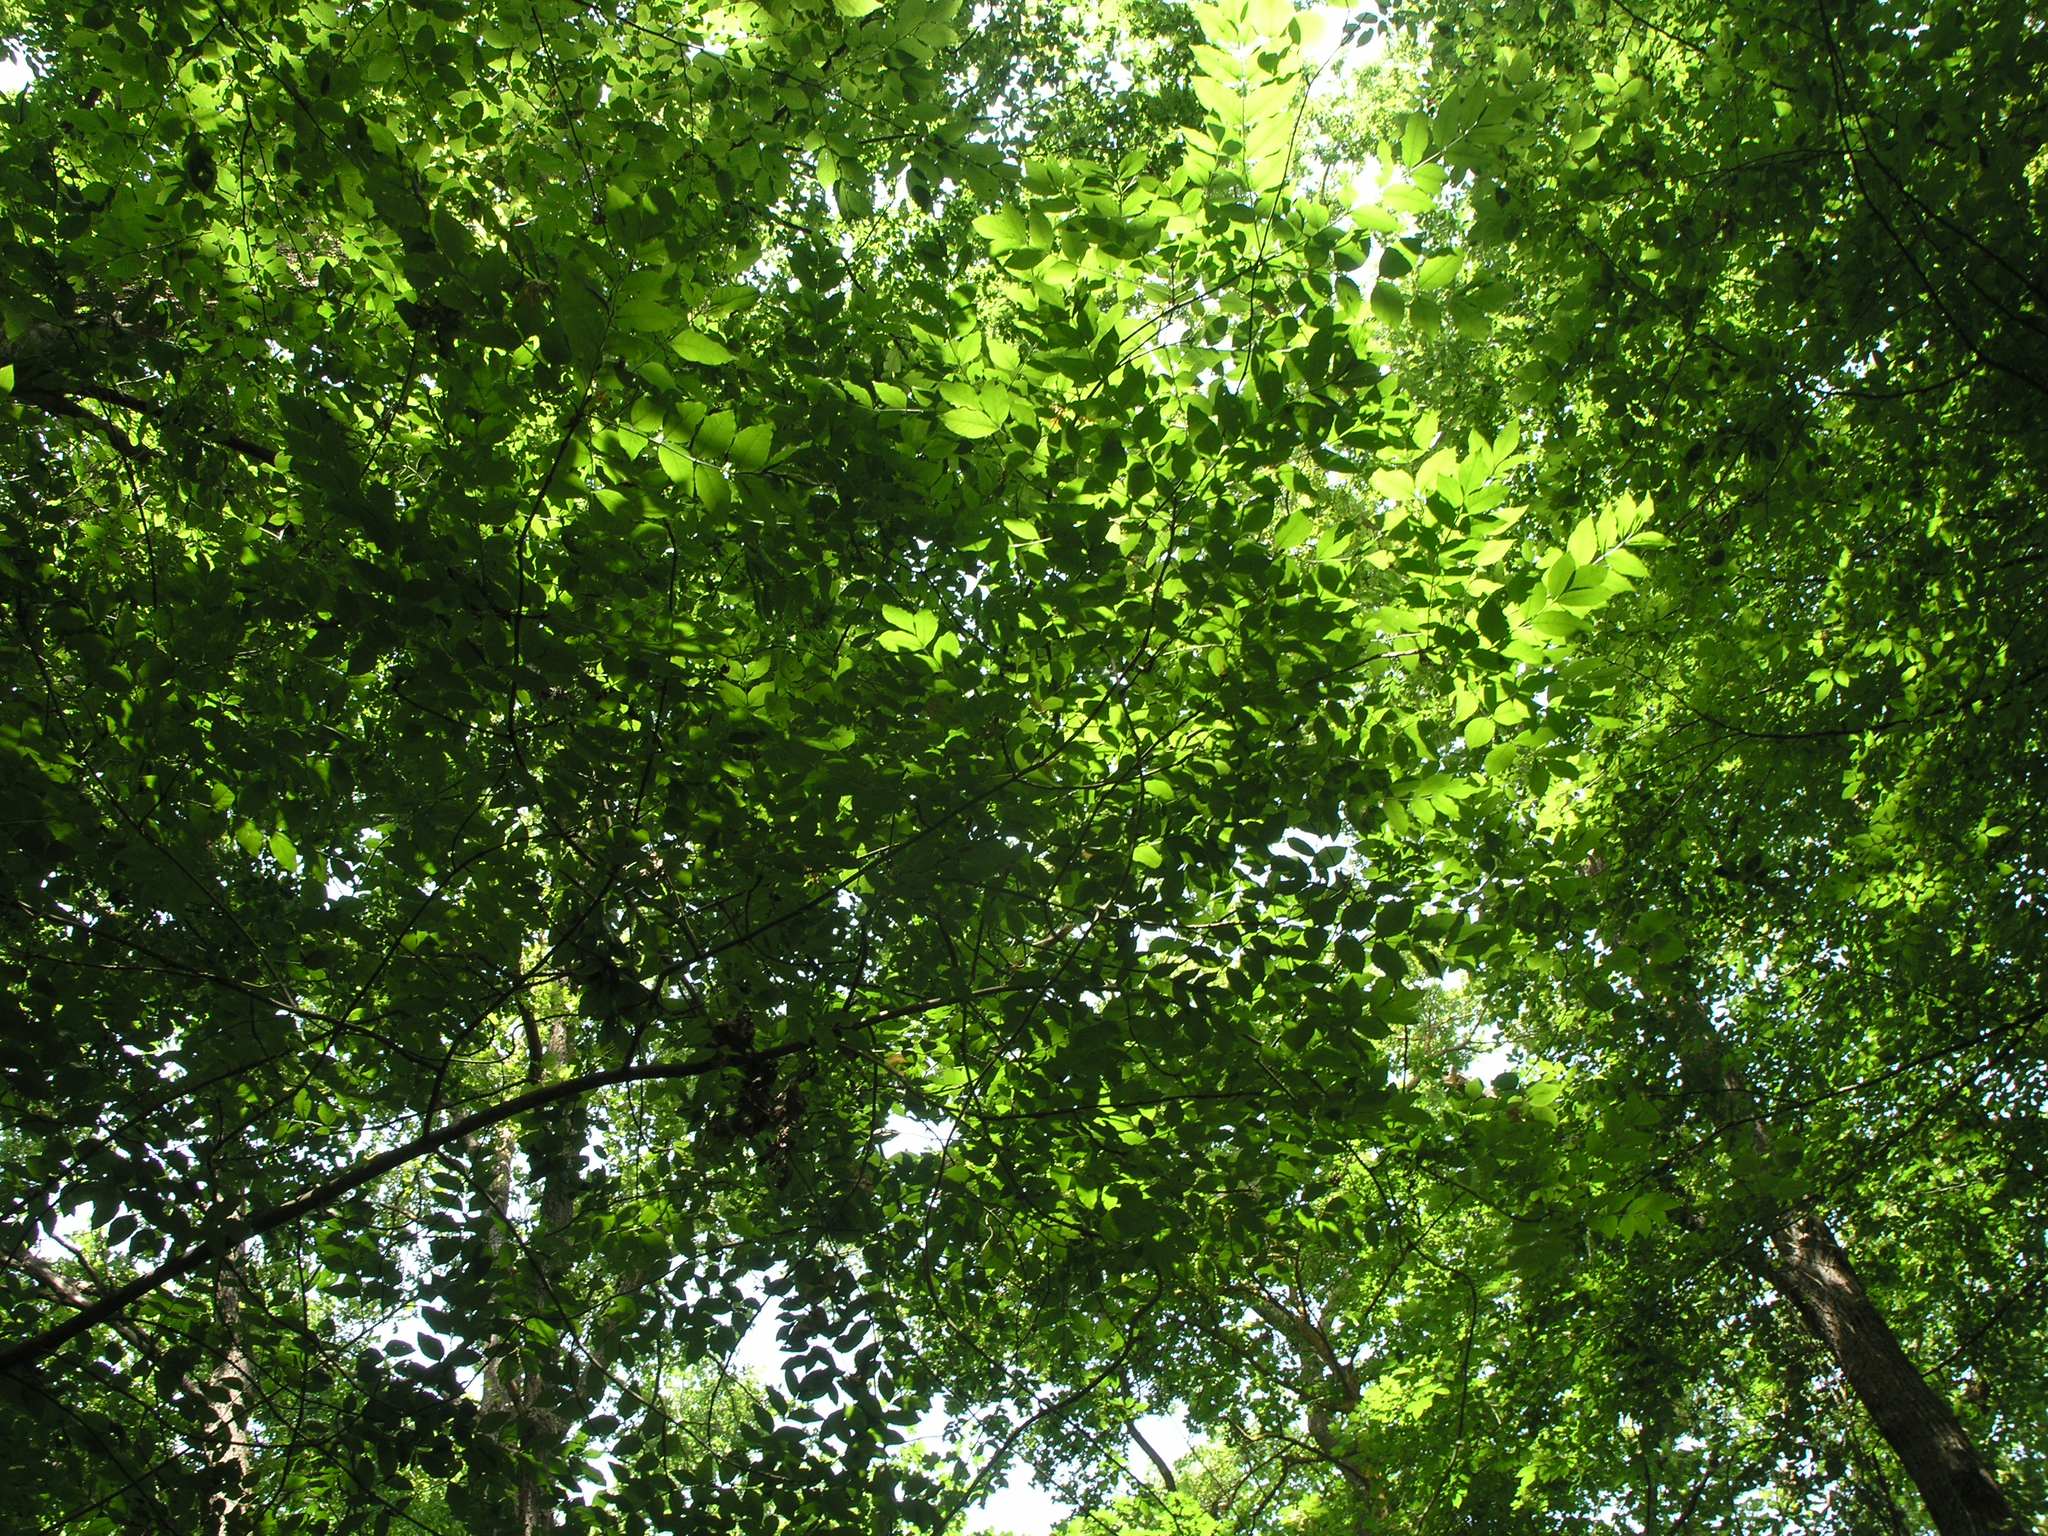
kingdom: Plantae
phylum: Tracheophyta
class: Magnoliopsida
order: Lamiales
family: Oleaceae
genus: Fraxinus
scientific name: Fraxinus excelsior
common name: European ash
